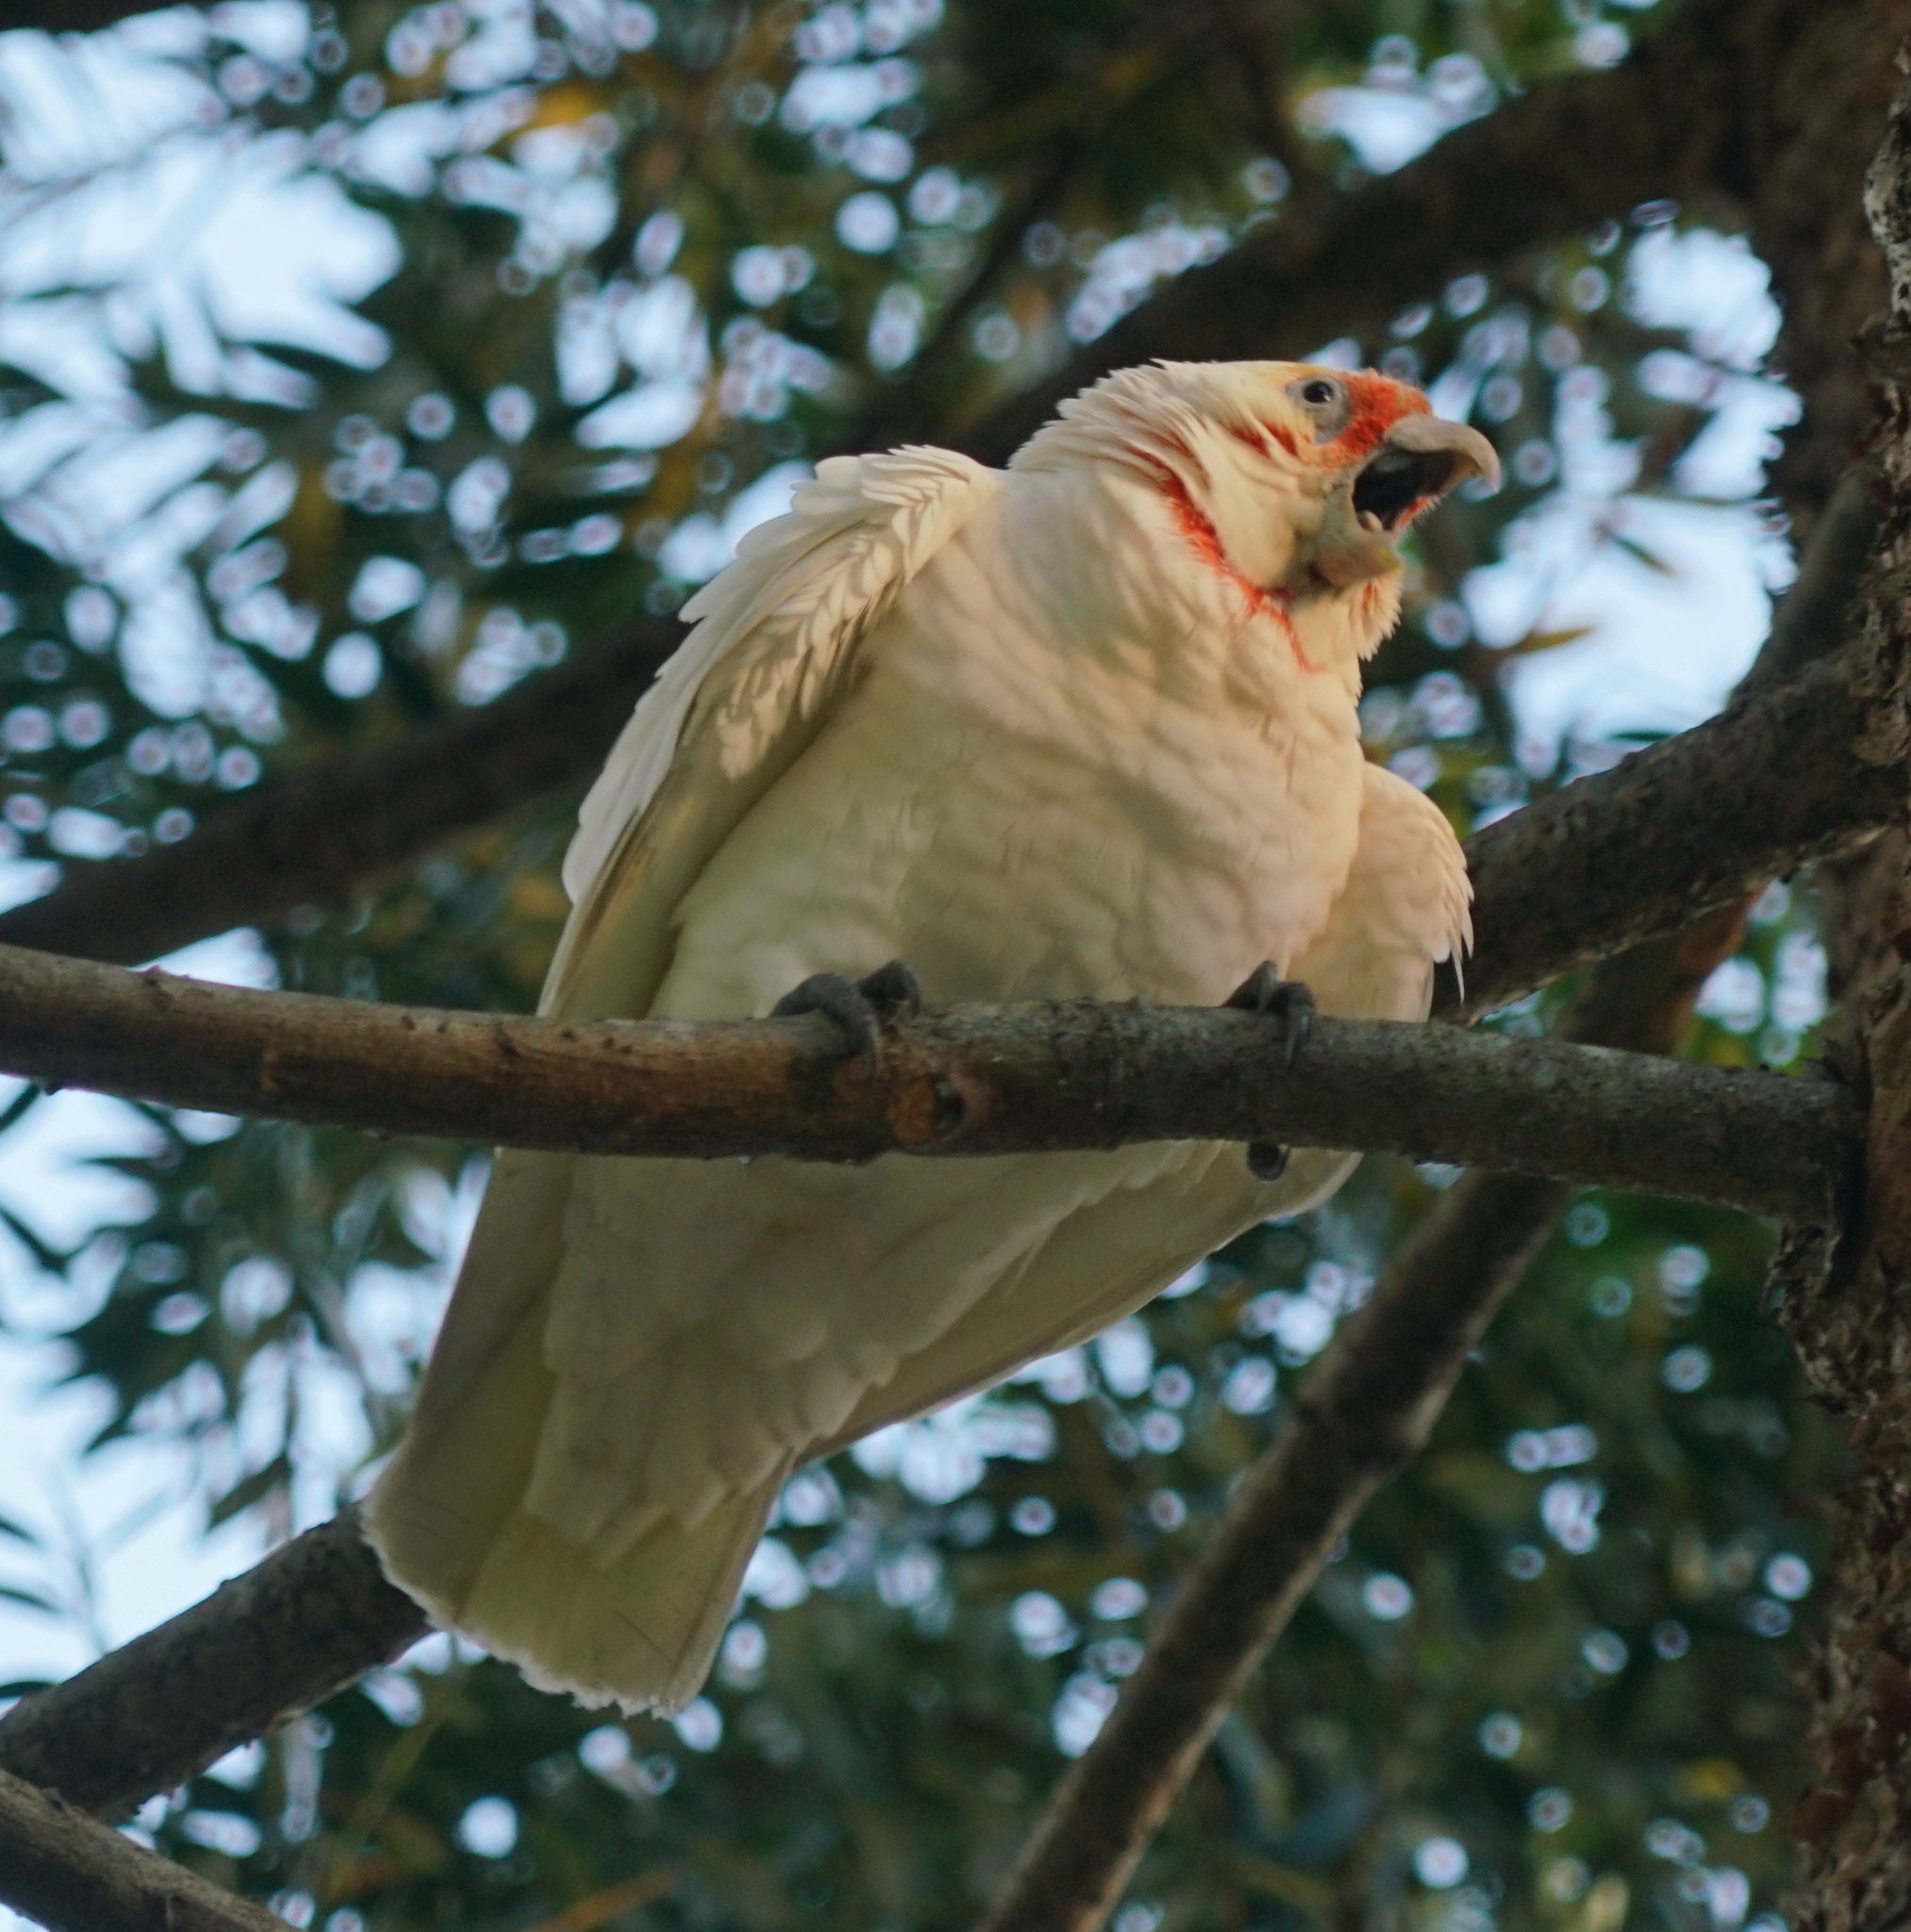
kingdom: Animalia
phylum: Chordata
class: Aves
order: Psittaciformes
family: Psittacidae
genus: Cacatua
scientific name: Cacatua tenuirostris
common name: Long-billed corella
